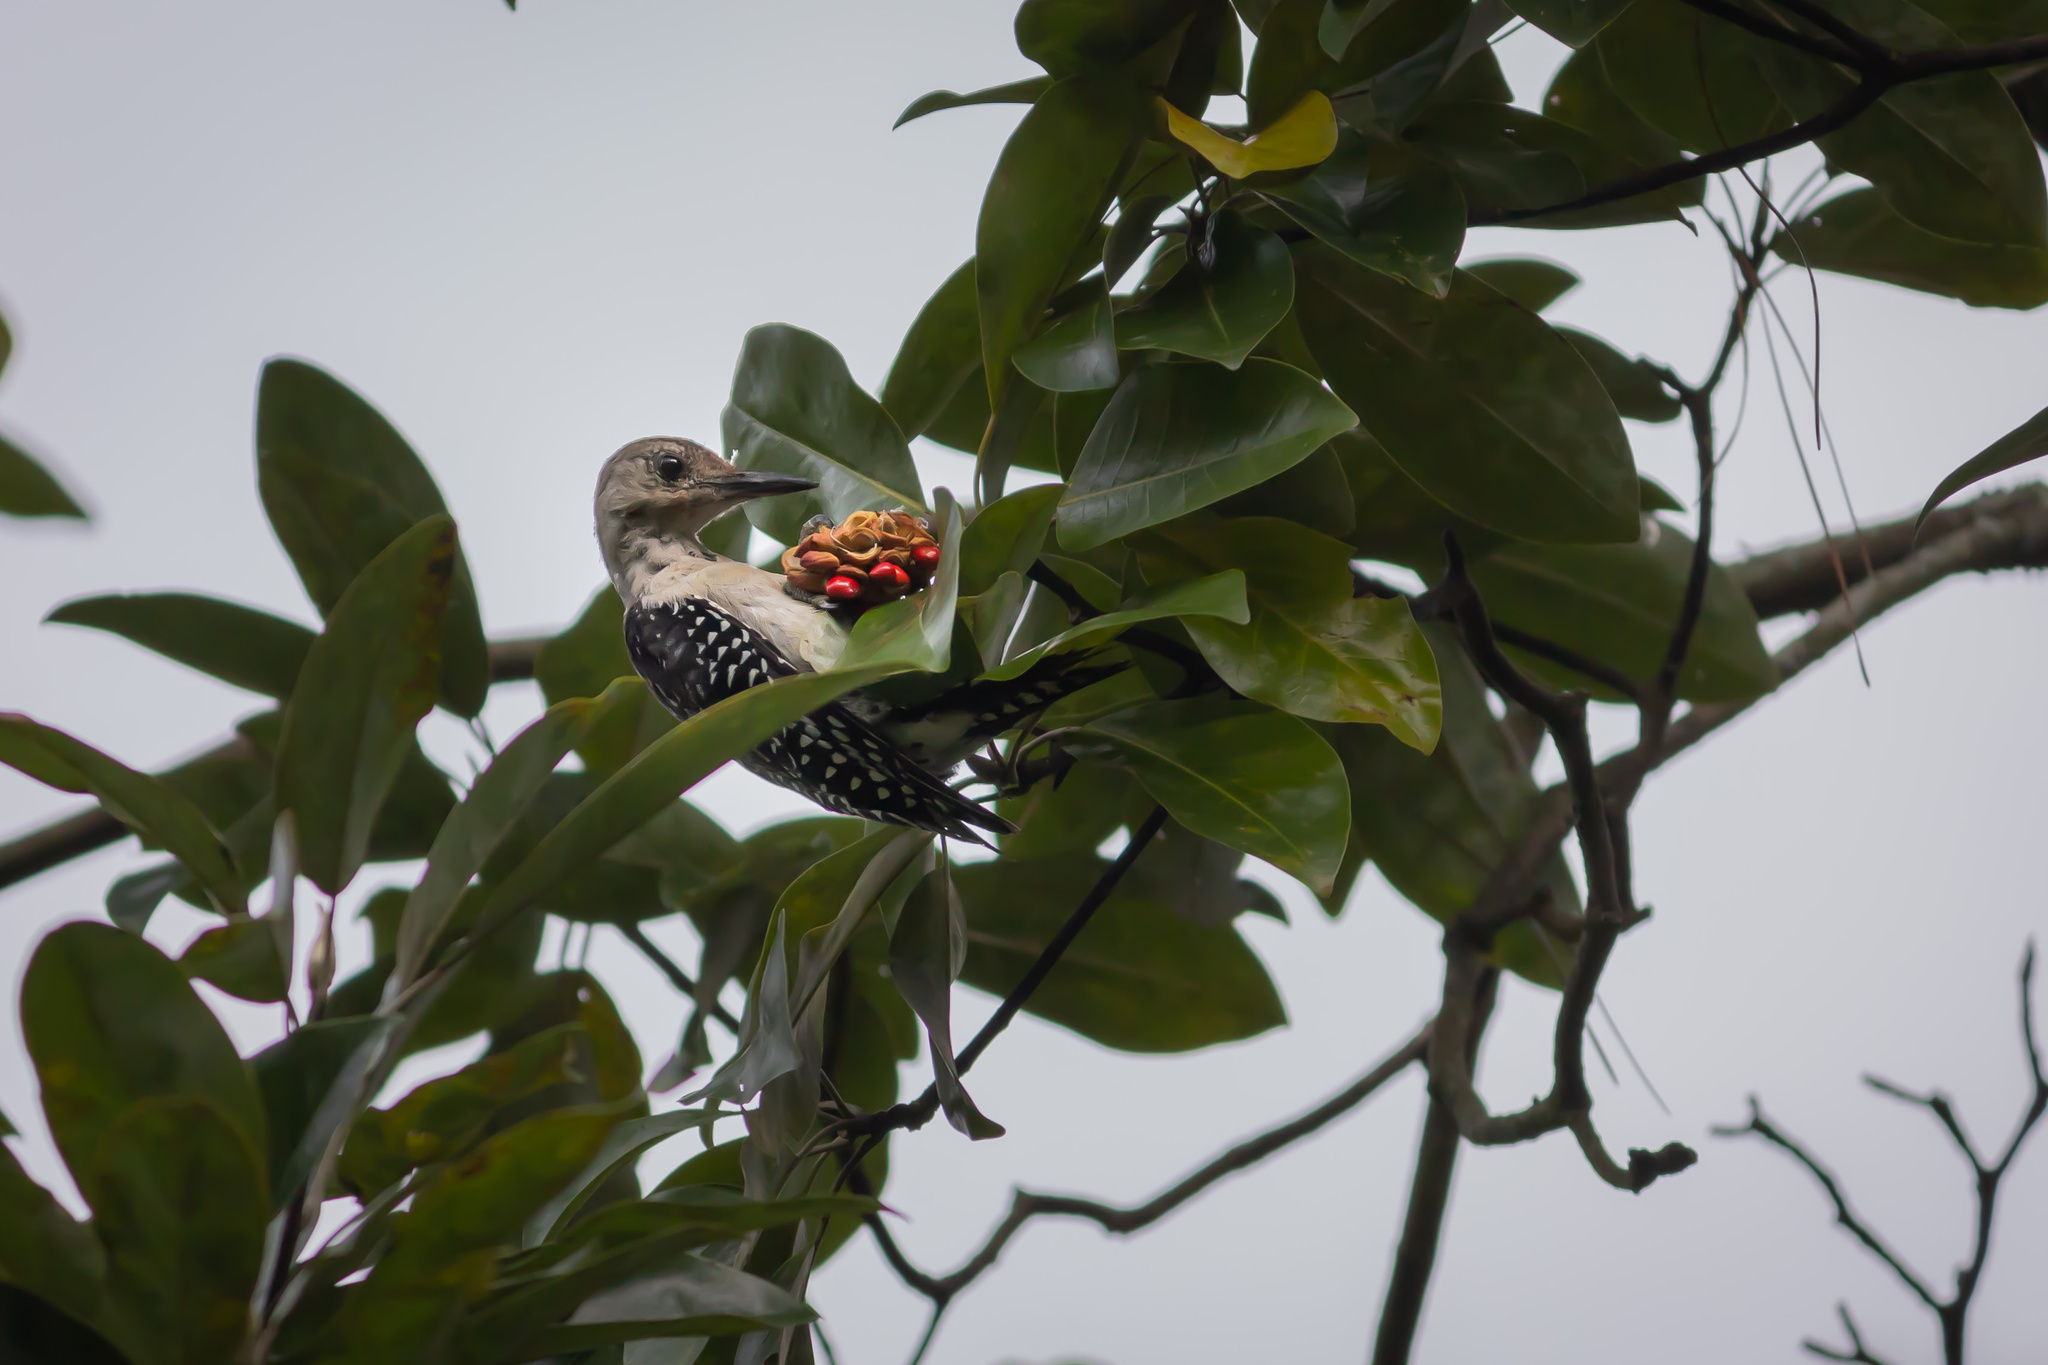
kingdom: Animalia
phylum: Chordata
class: Aves
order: Piciformes
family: Picidae
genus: Melanerpes
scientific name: Melanerpes carolinus
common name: Red-bellied woodpecker
